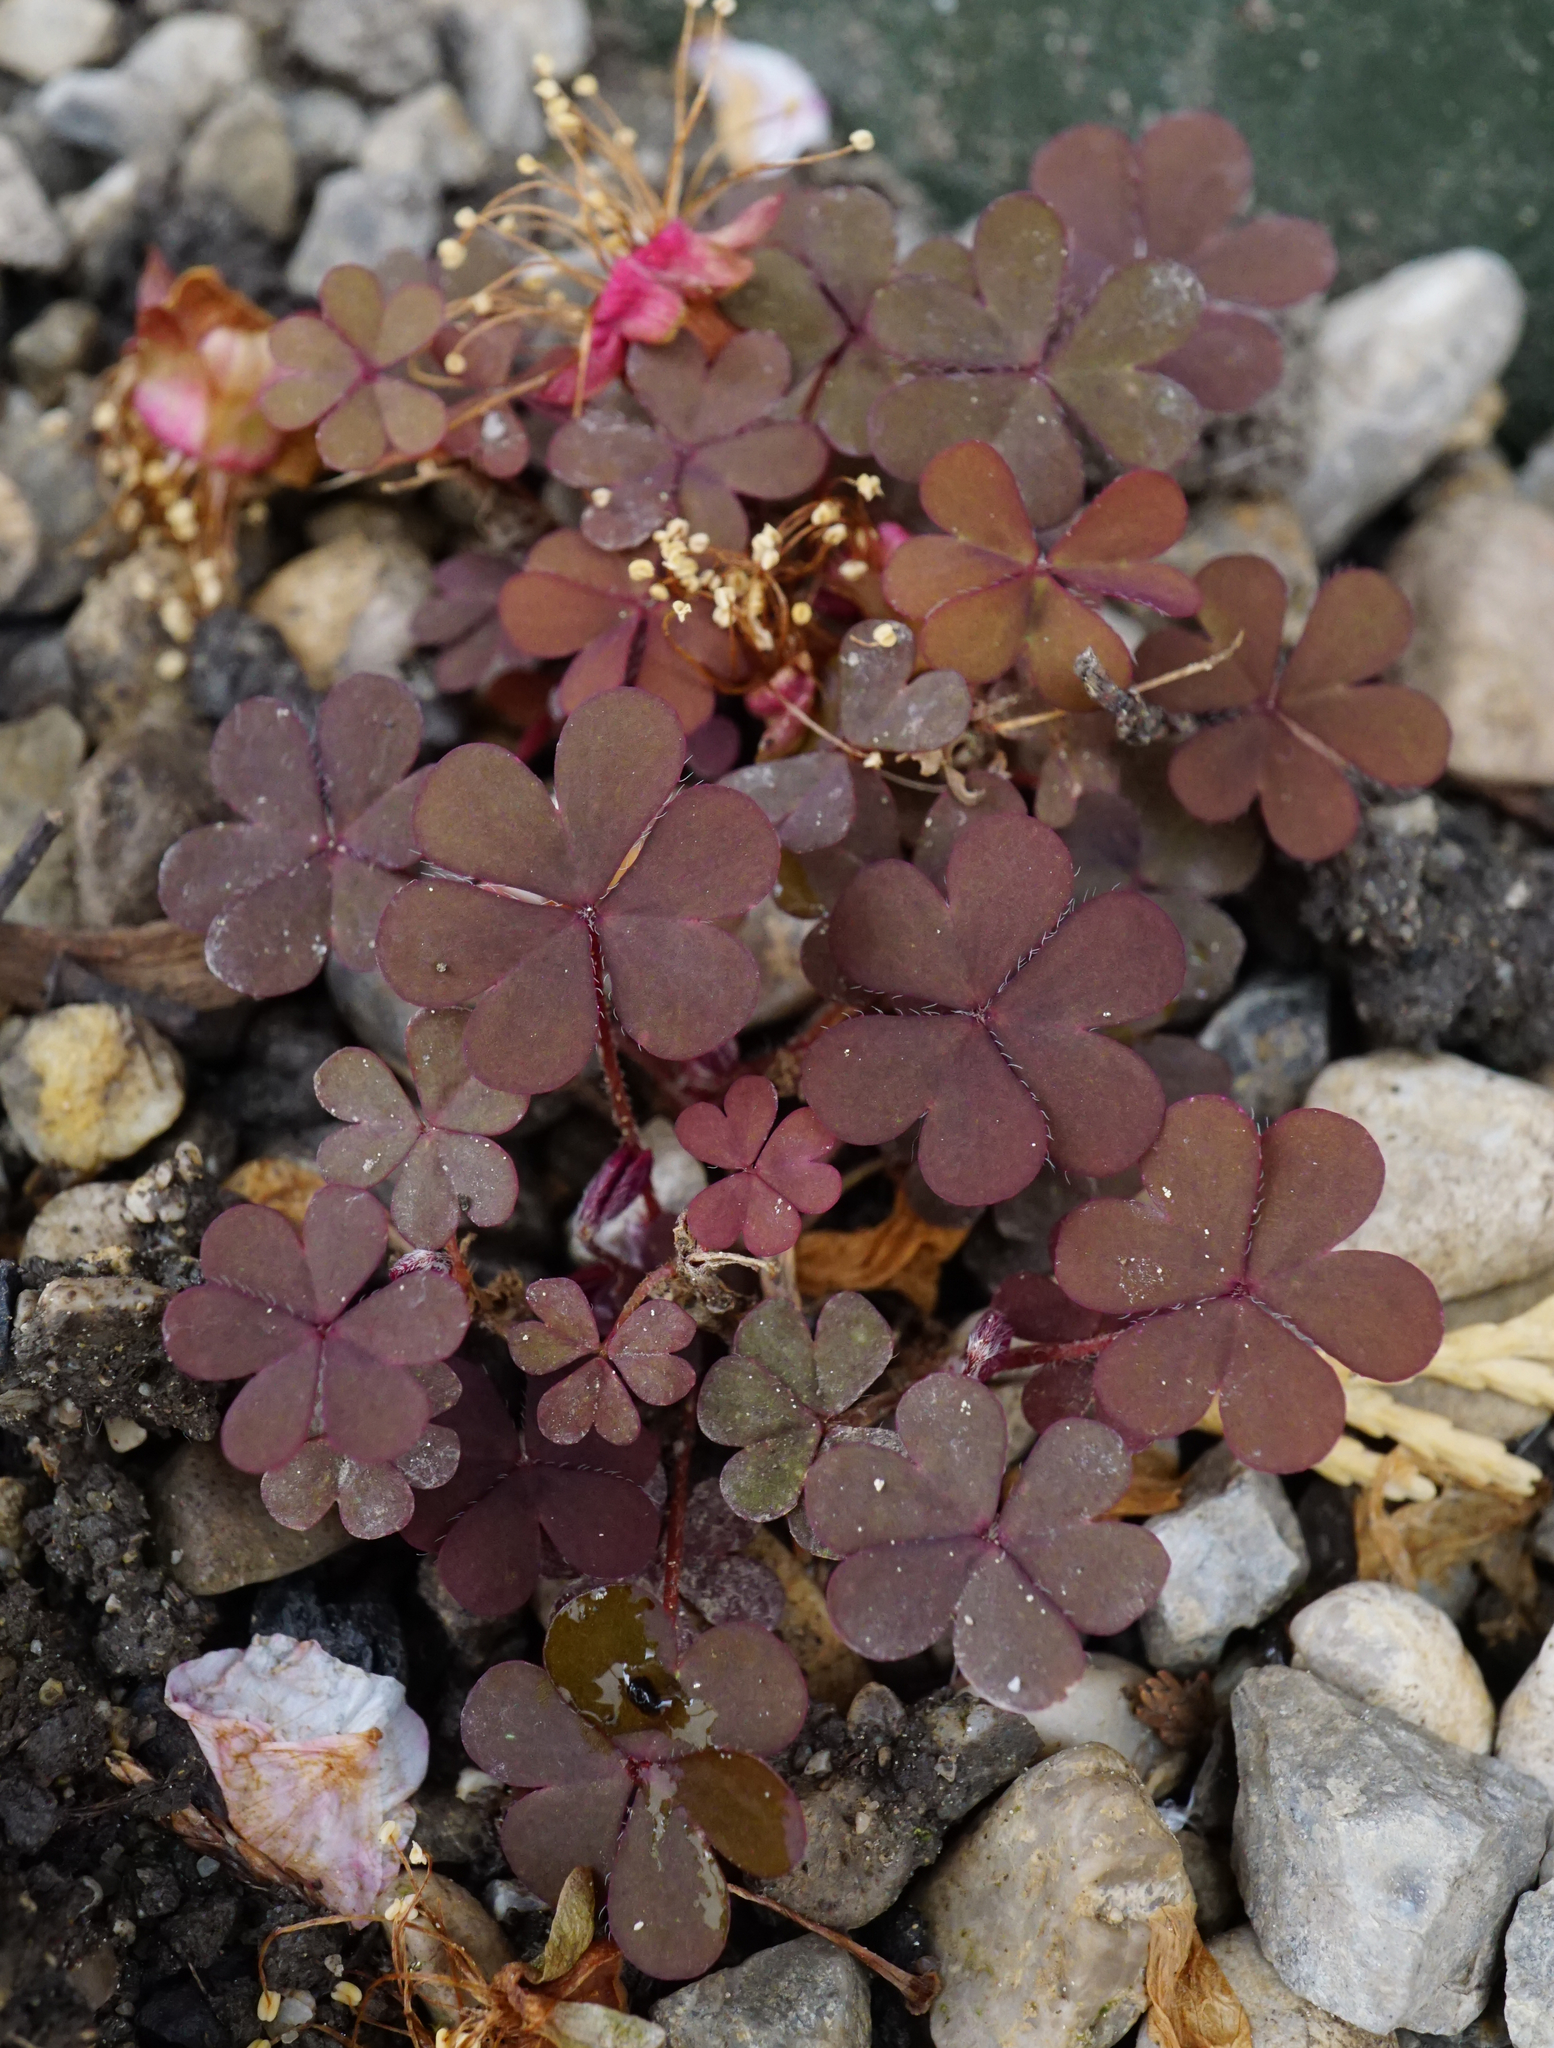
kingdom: Plantae
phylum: Tracheophyta
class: Magnoliopsida
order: Oxalidales
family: Oxalidaceae
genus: Oxalis
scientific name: Oxalis corniculata
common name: Procumbent yellow-sorrel
